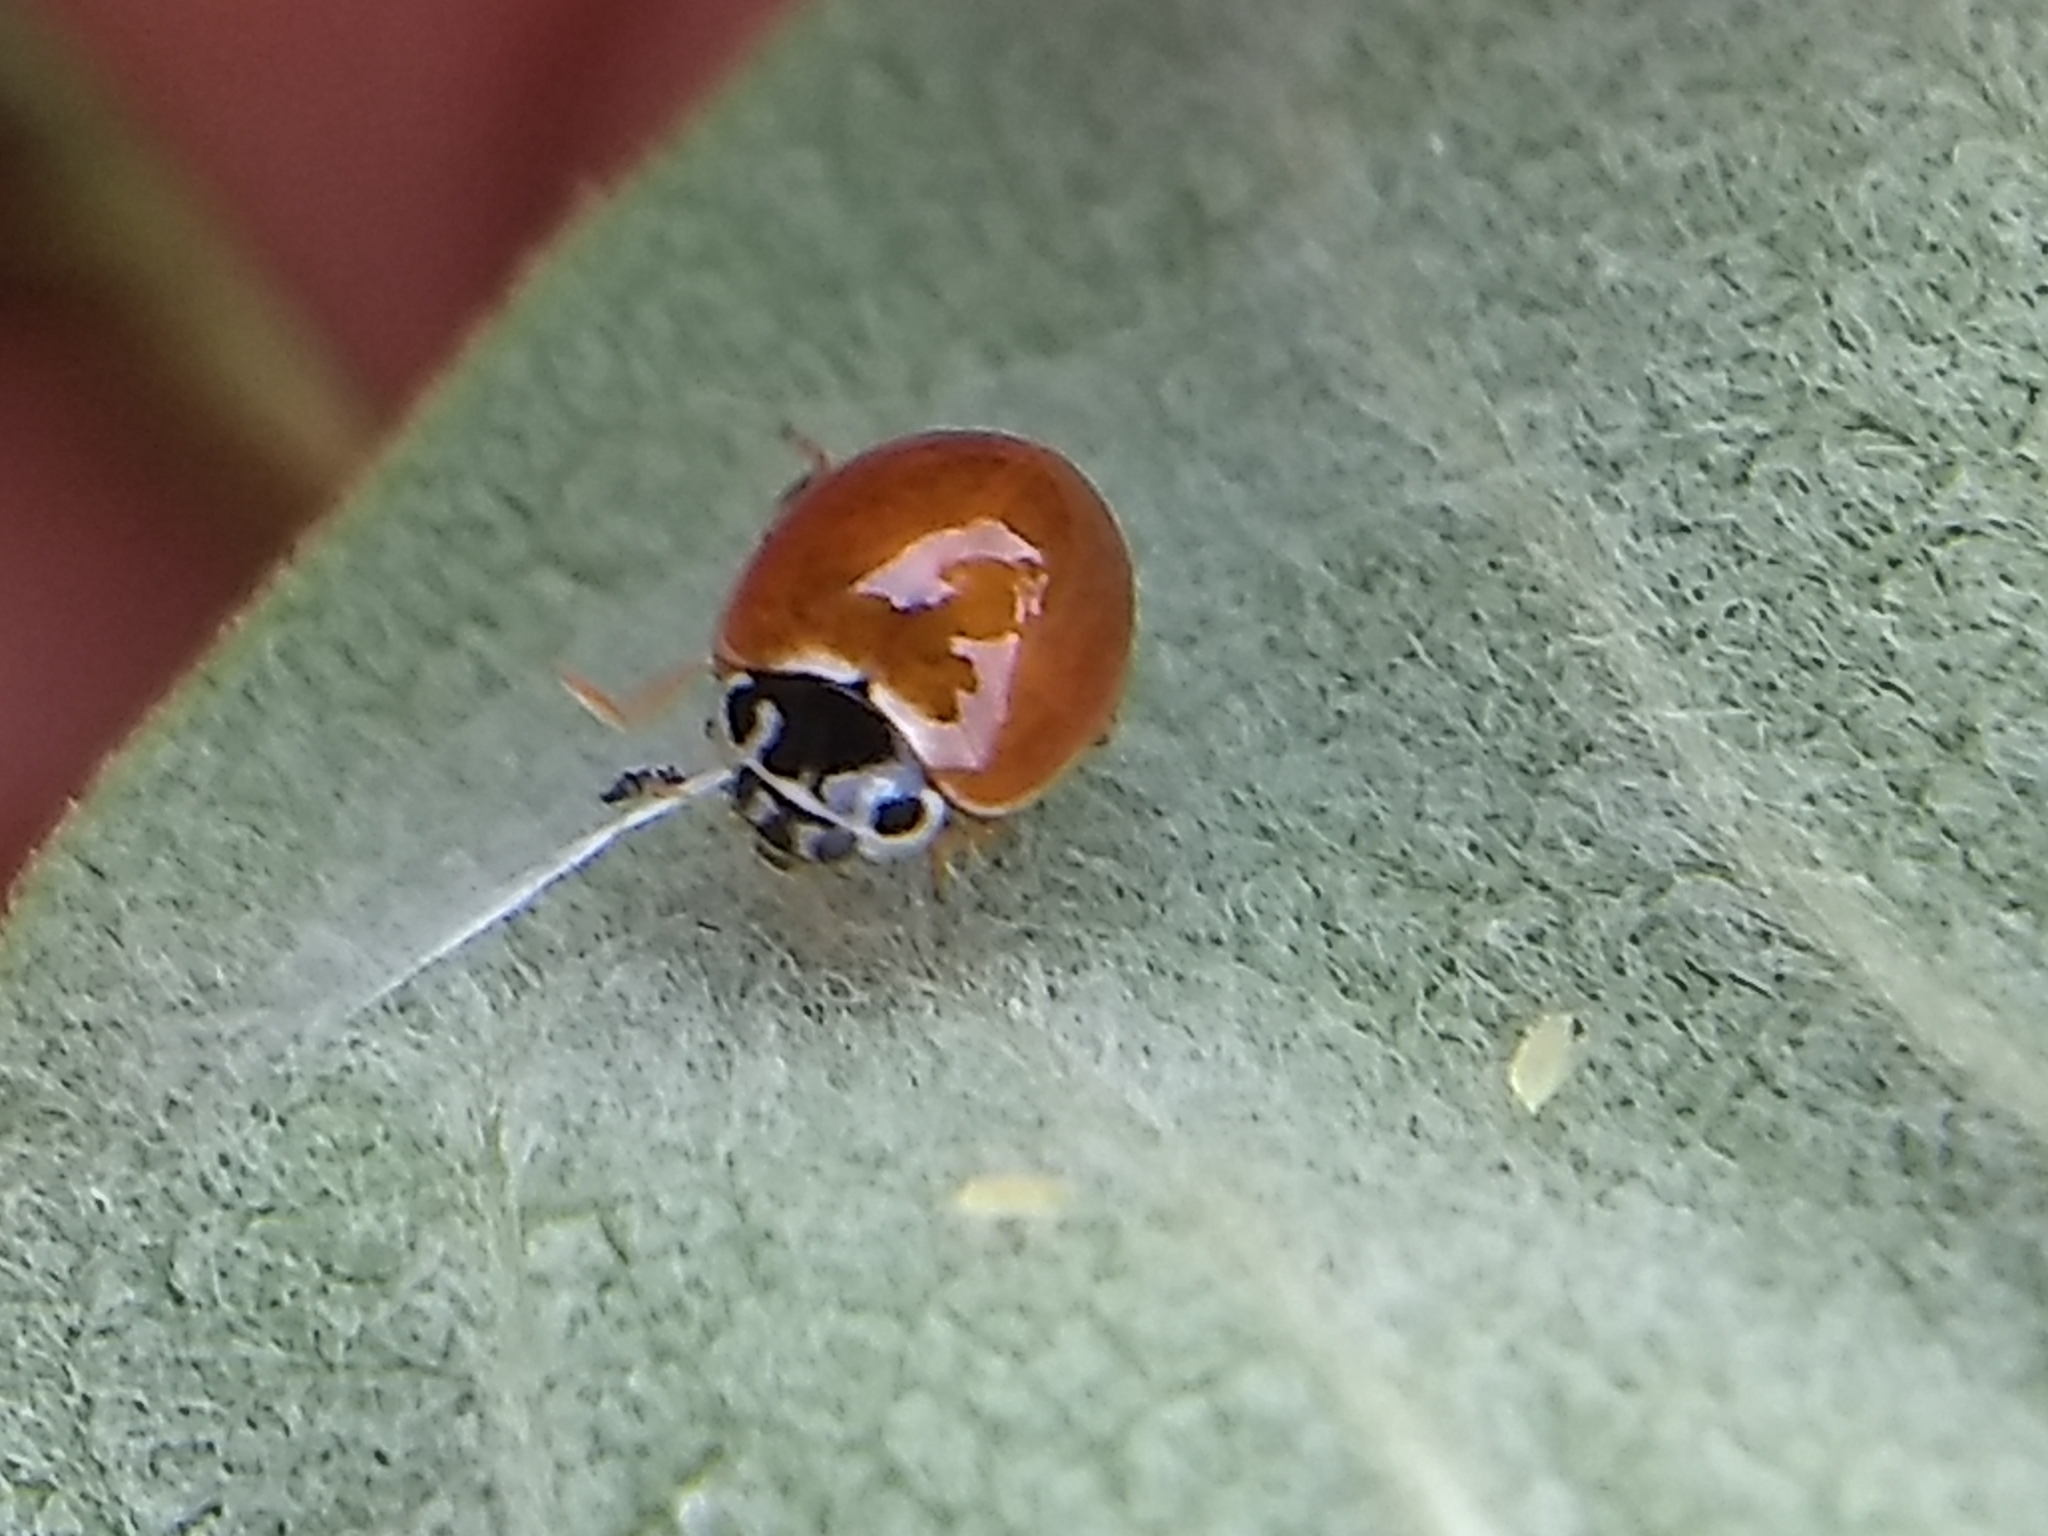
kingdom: Animalia
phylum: Arthropoda
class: Insecta
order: Coleoptera
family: Coccinellidae
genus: Cycloneda
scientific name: Cycloneda munda
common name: Polished lady beetle
